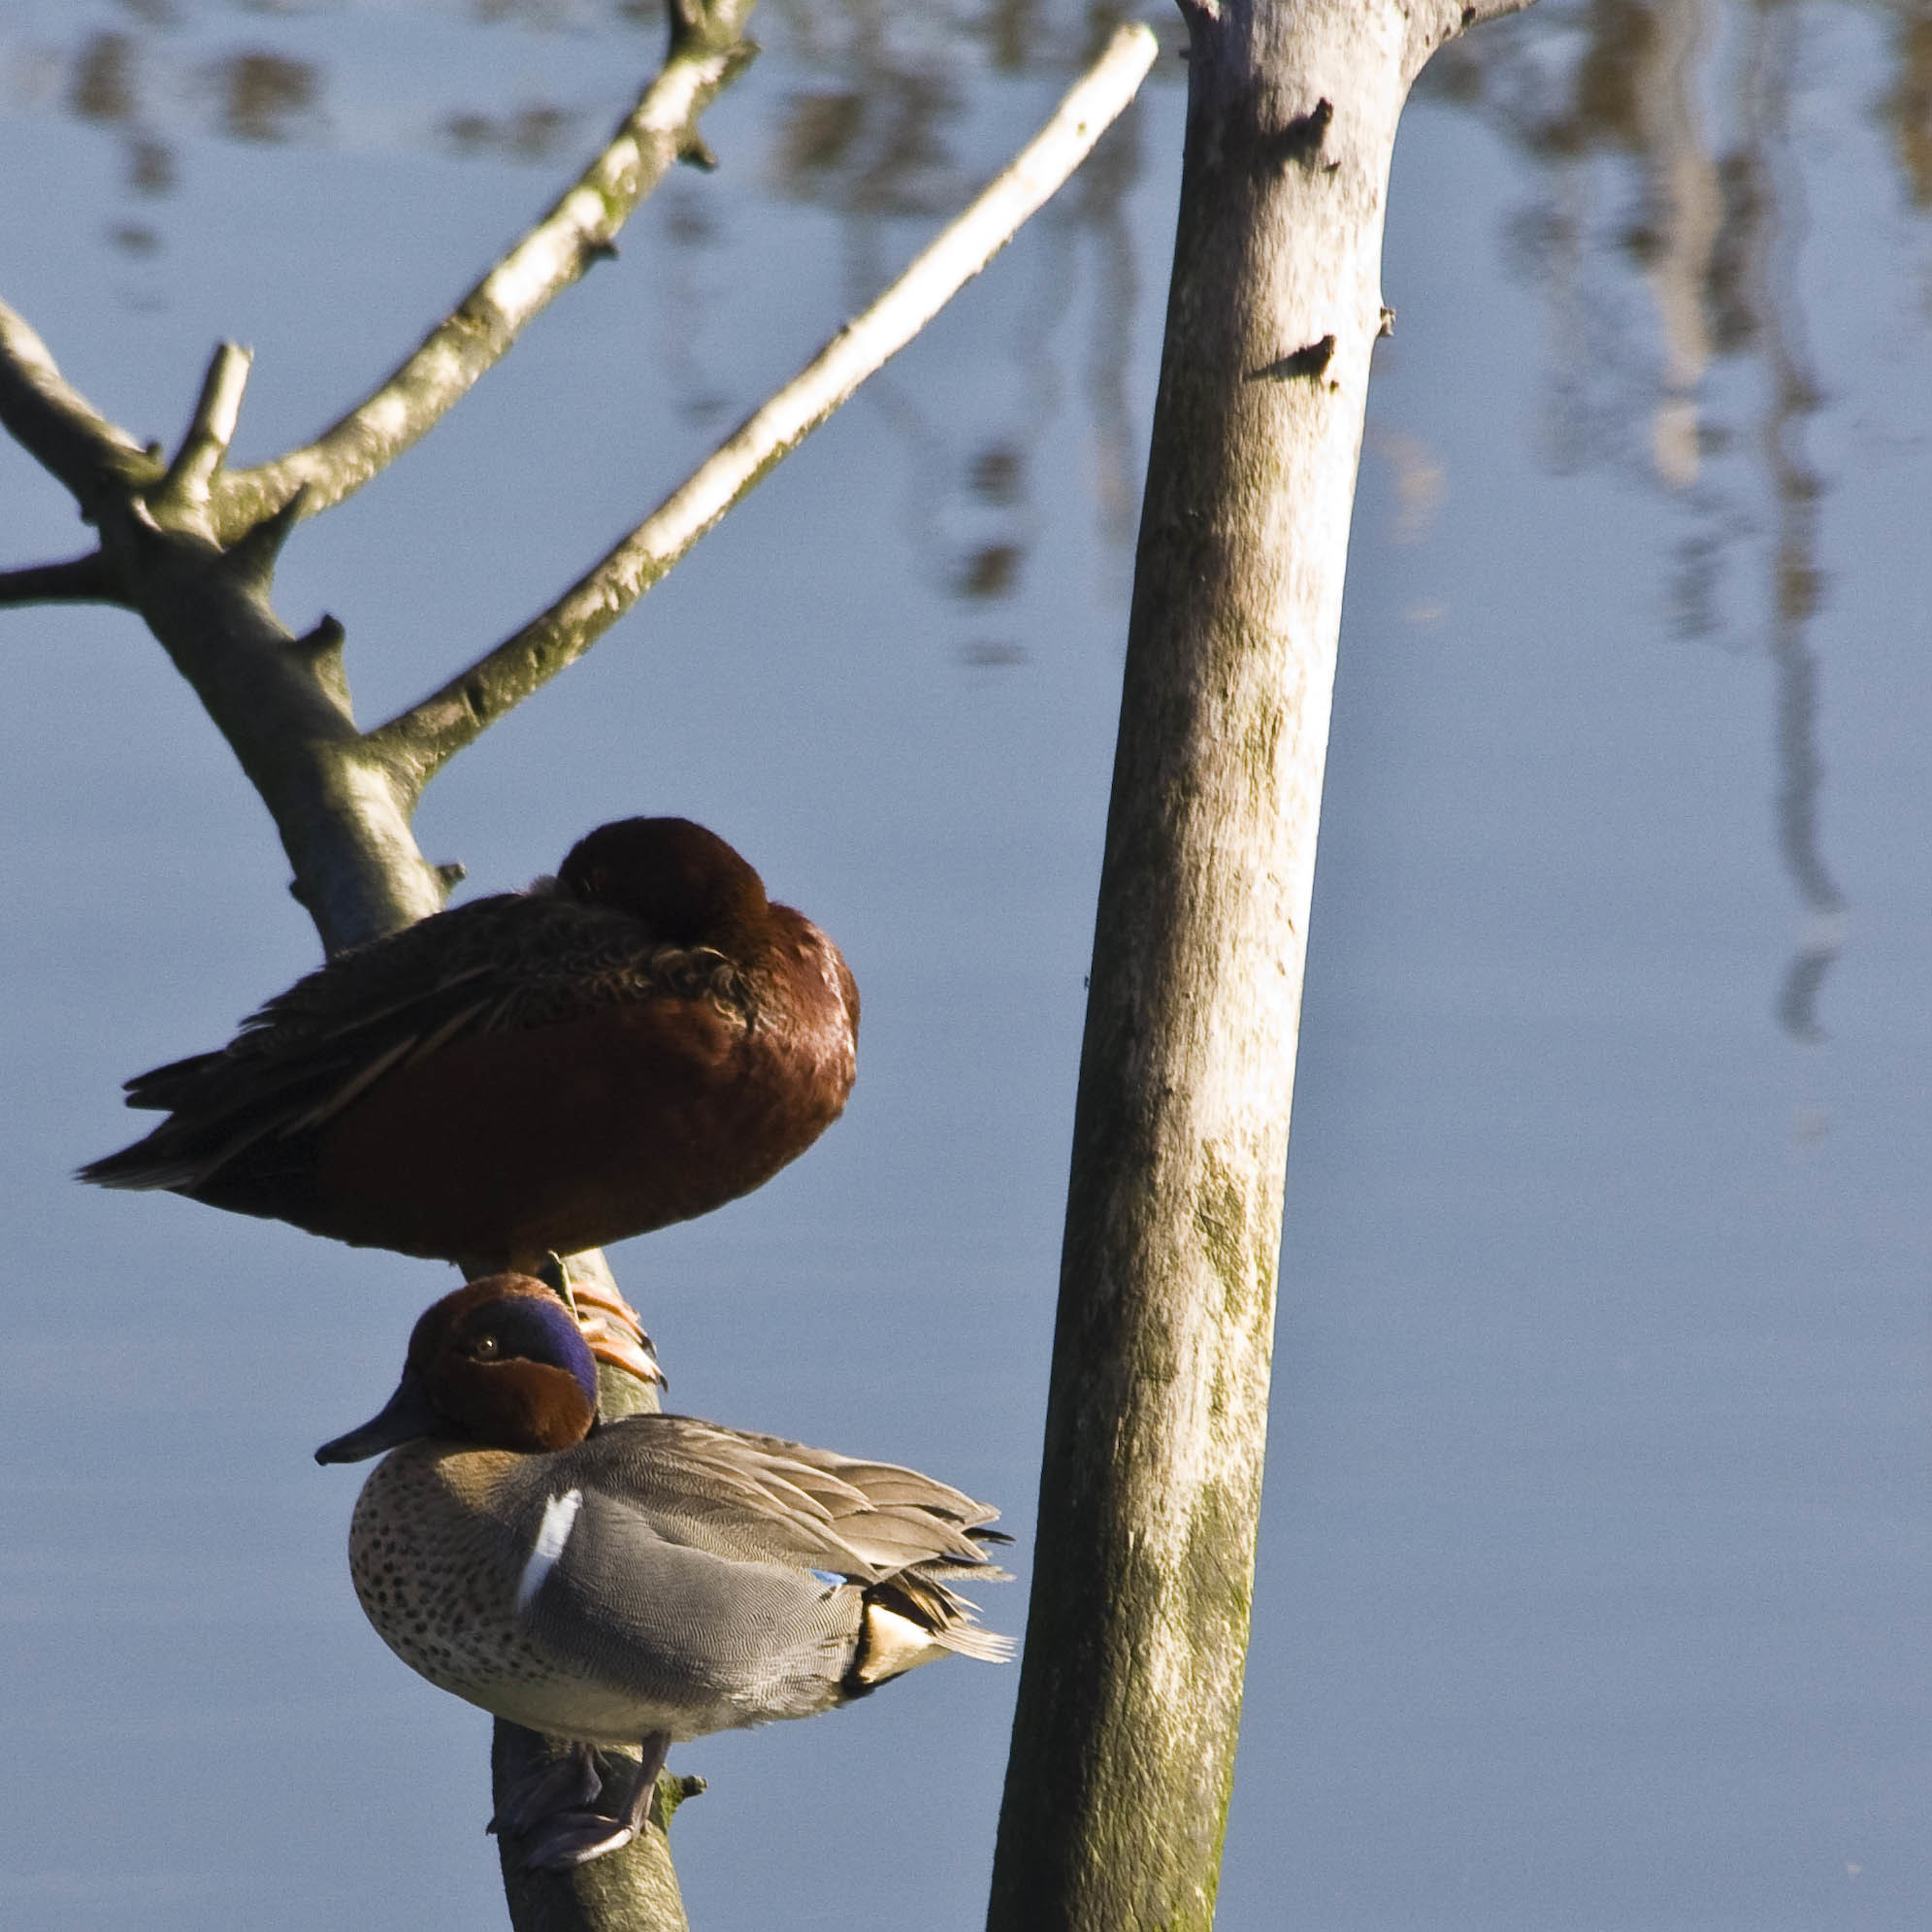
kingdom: Animalia
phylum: Chordata
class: Aves
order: Anseriformes
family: Anatidae
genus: Anas
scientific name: Anas crecca
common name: Eurasian teal
